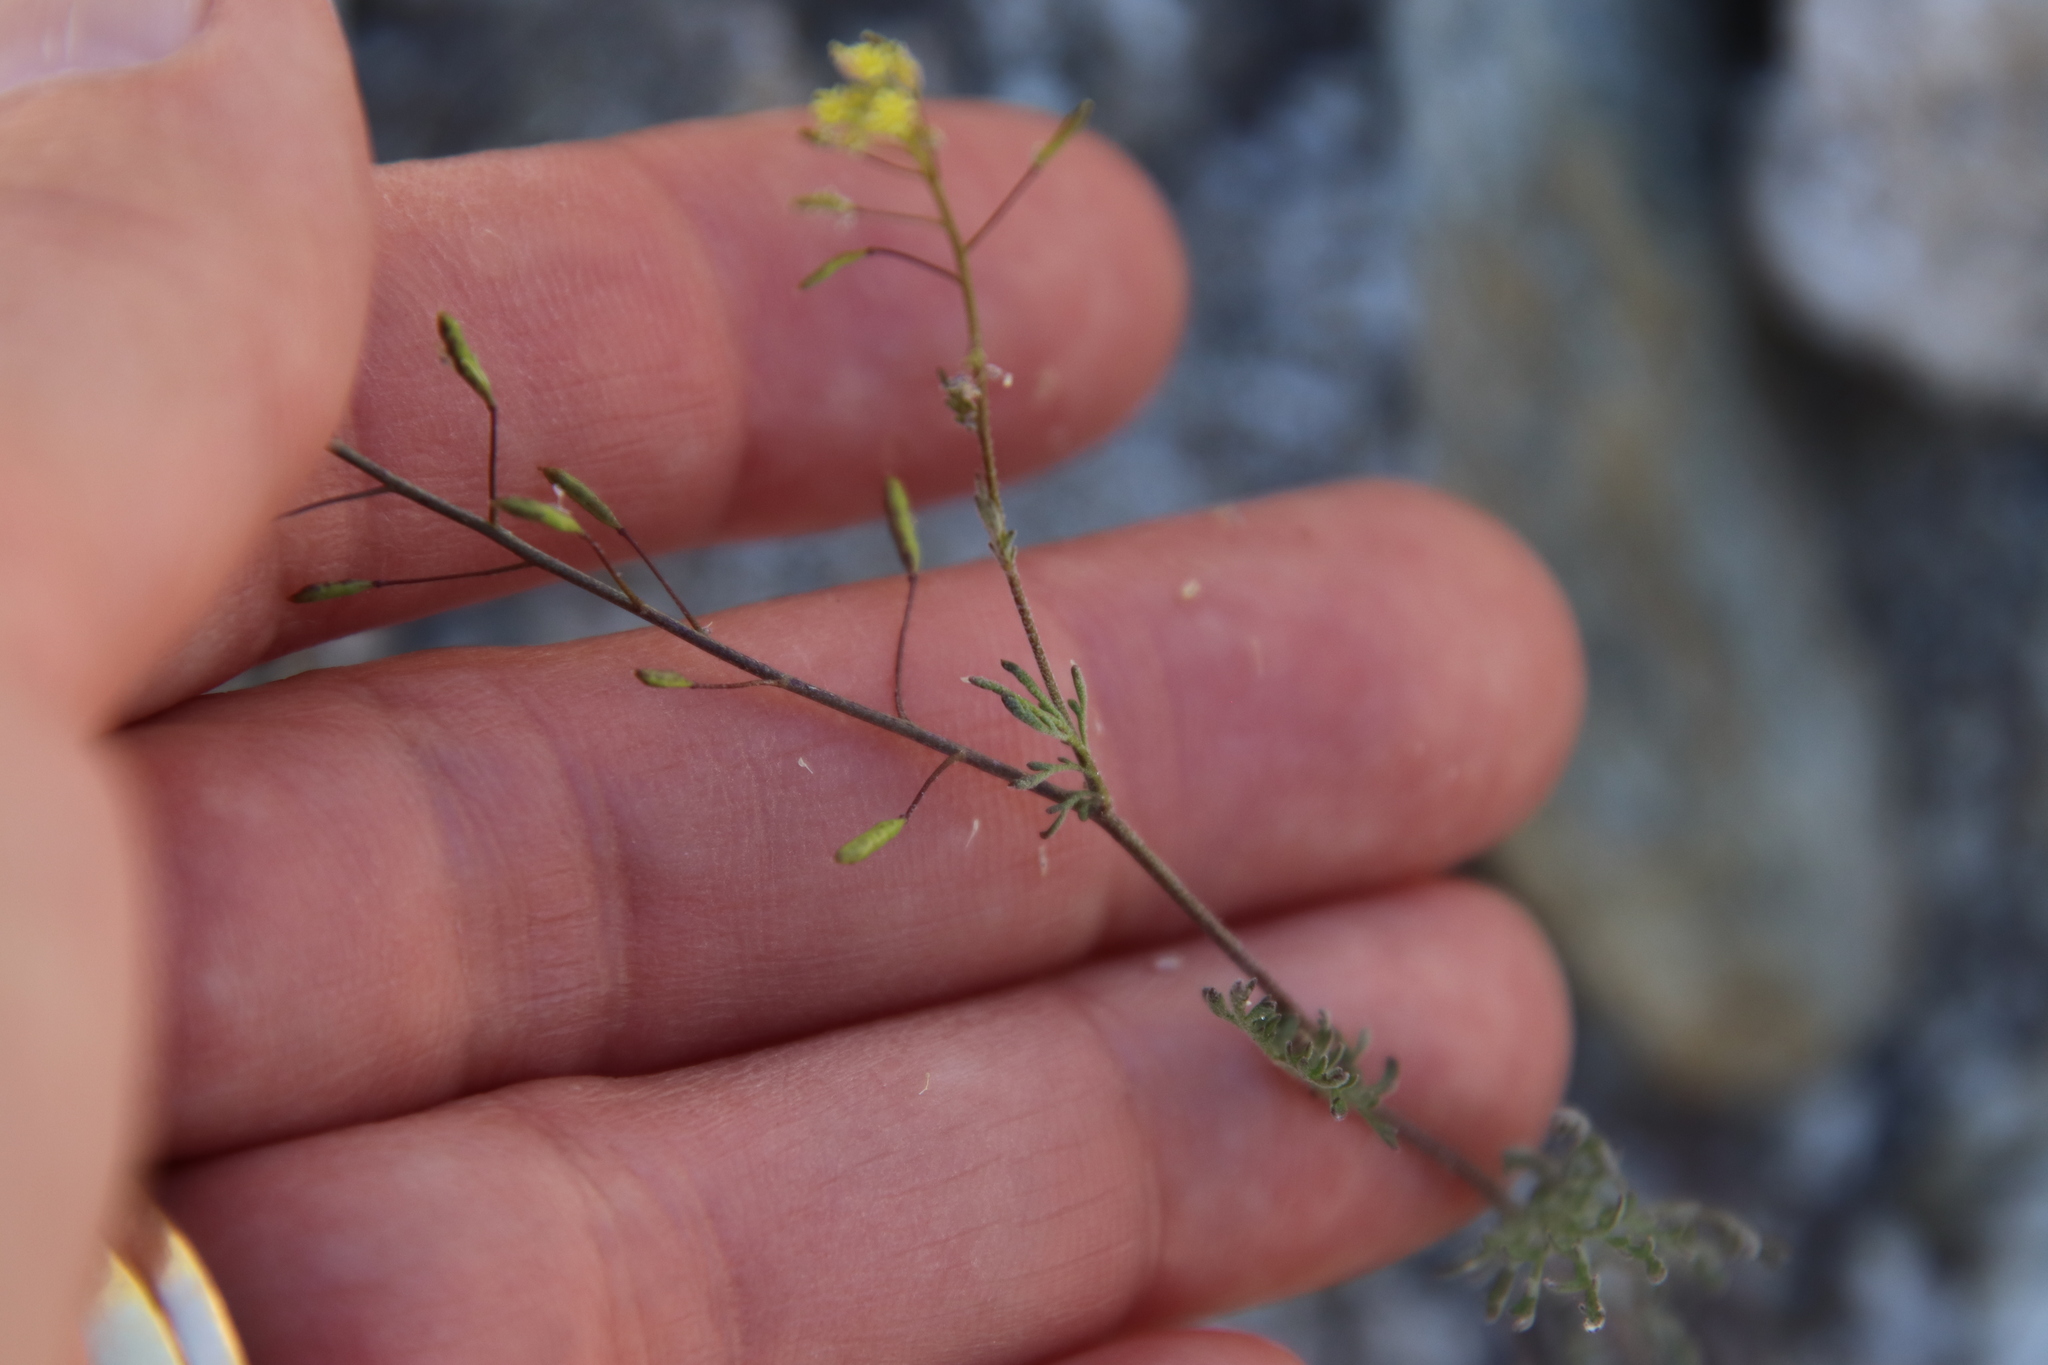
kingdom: Plantae
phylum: Tracheophyta
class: Magnoliopsida
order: Brassicales
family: Brassicaceae
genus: Descurainia
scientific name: Descurainia pinnata
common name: Western tansy mustard
